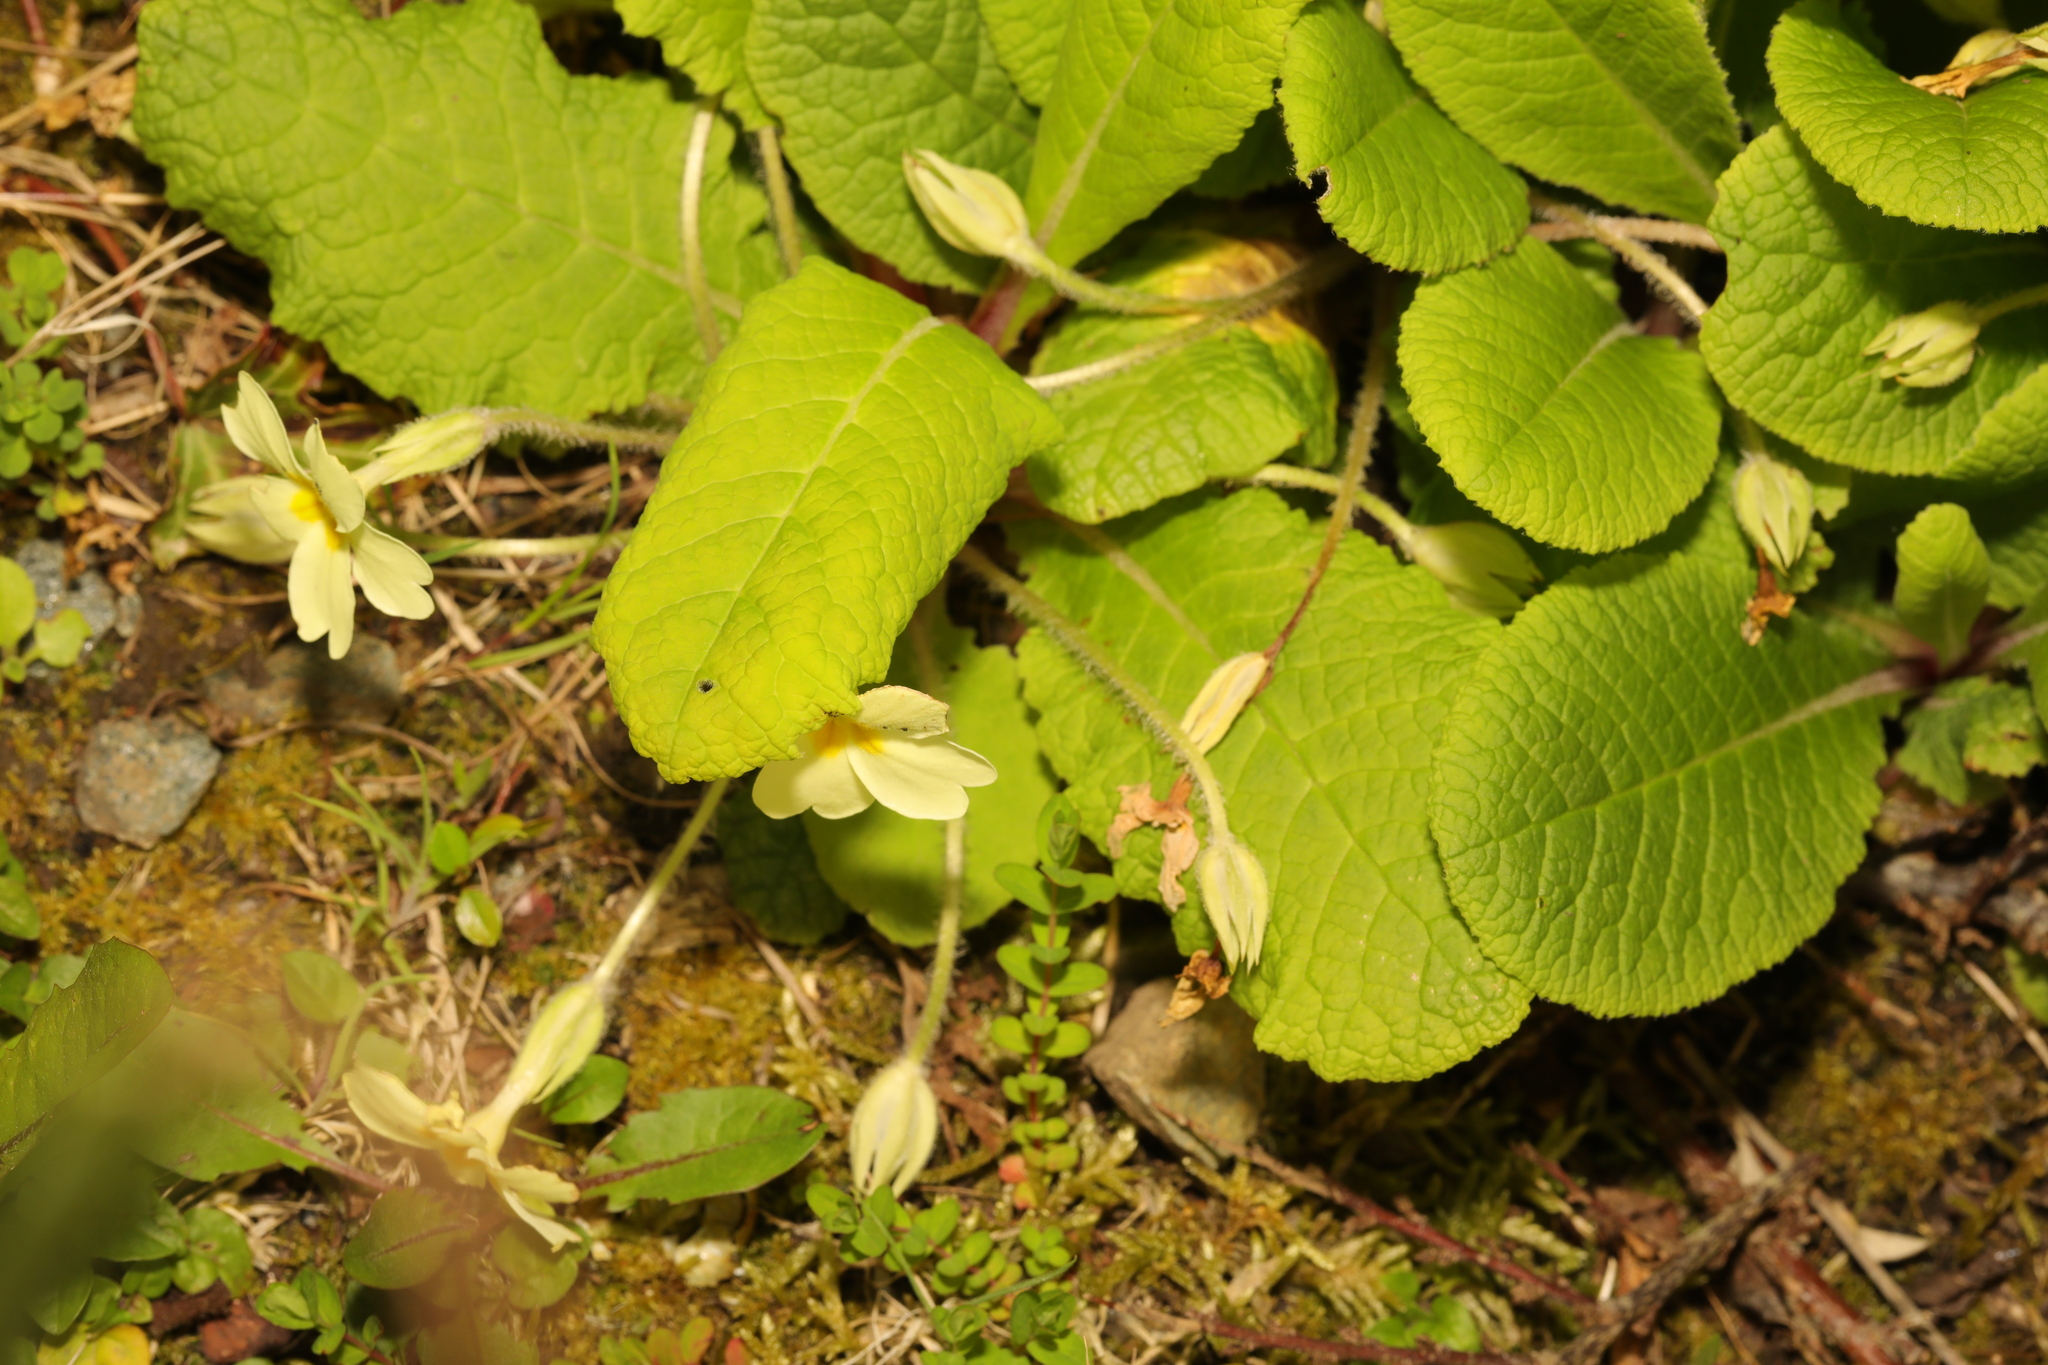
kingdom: Plantae
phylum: Tracheophyta
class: Magnoliopsida
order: Ericales
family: Primulaceae
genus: Primula
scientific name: Primula vulgaris
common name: Primrose
